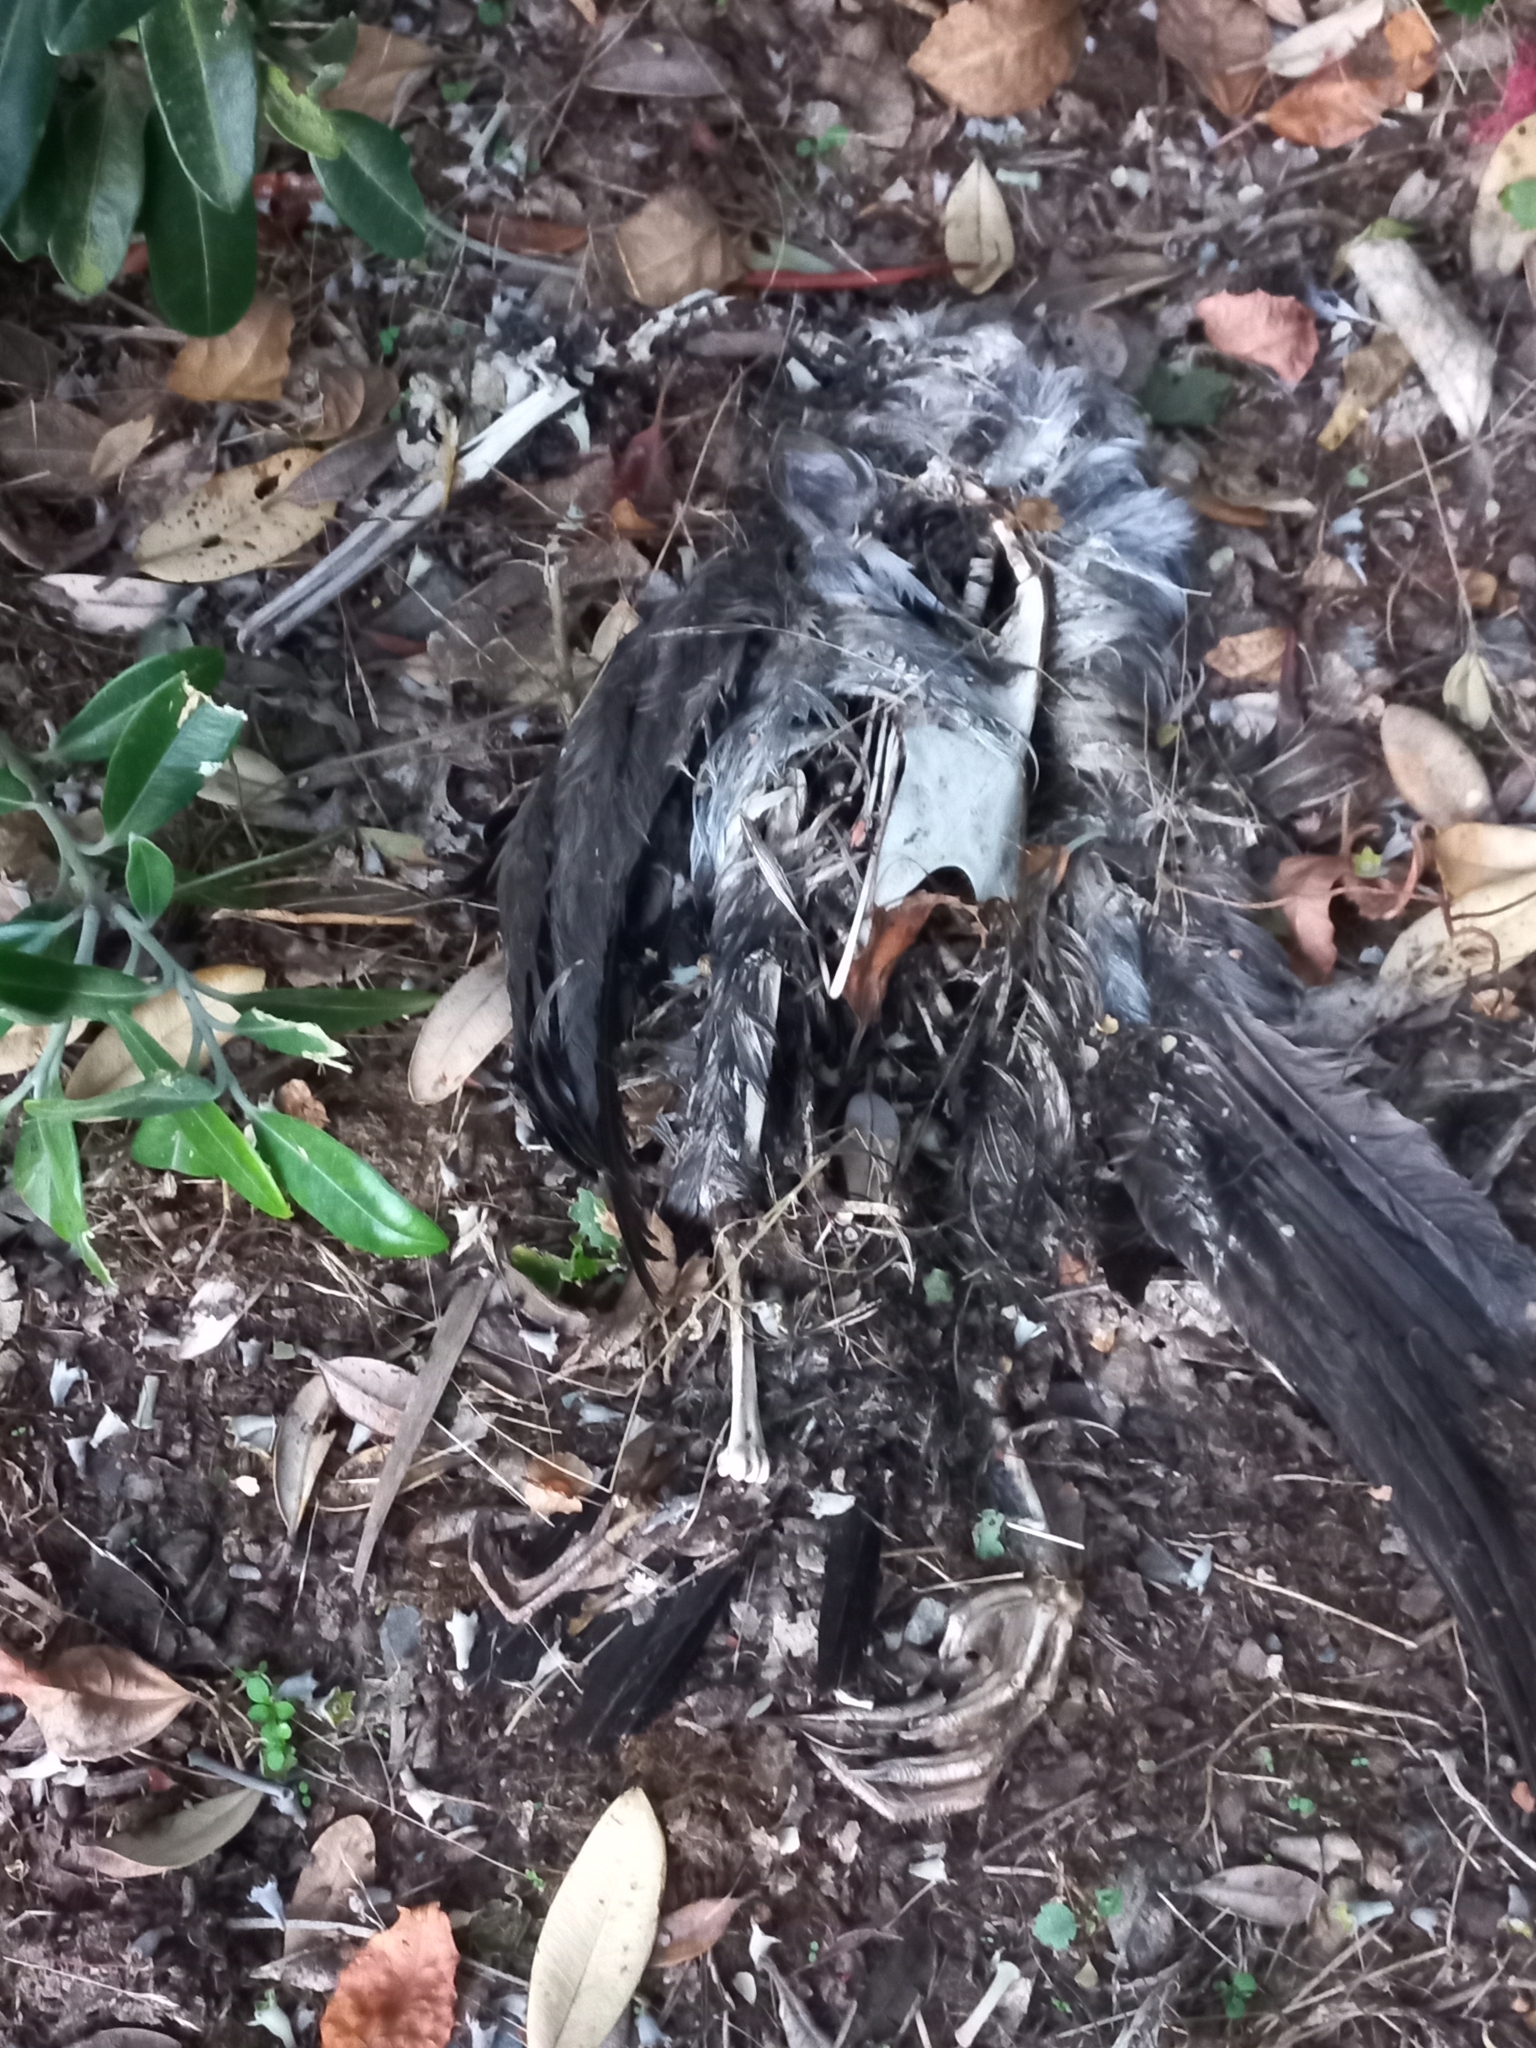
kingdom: Animalia
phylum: Chordata
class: Aves
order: Suliformes
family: Phalacrocoracidae
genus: Phalacrocorax
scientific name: Phalacrocorax punctatus
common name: Spotted shag
